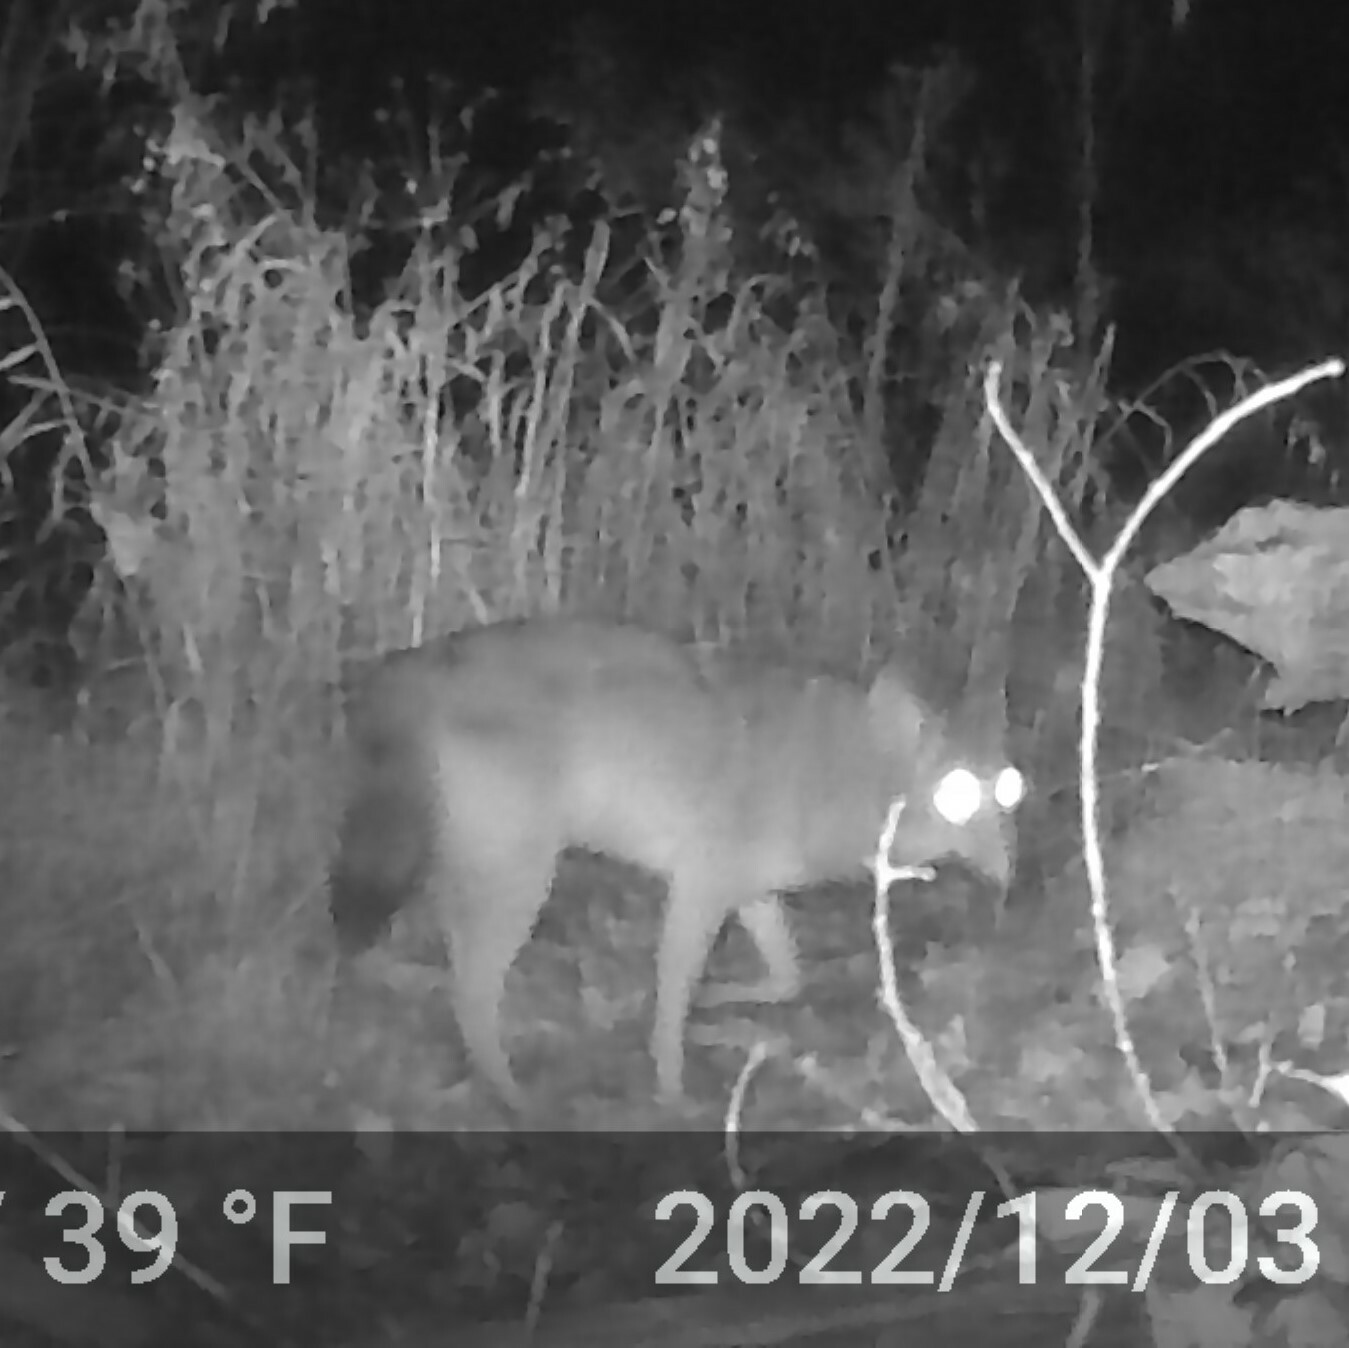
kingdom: Animalia
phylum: Chordata
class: Mammalia
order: Carnivora
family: Canidae
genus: Canis
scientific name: Canis latrans
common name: Coyote
